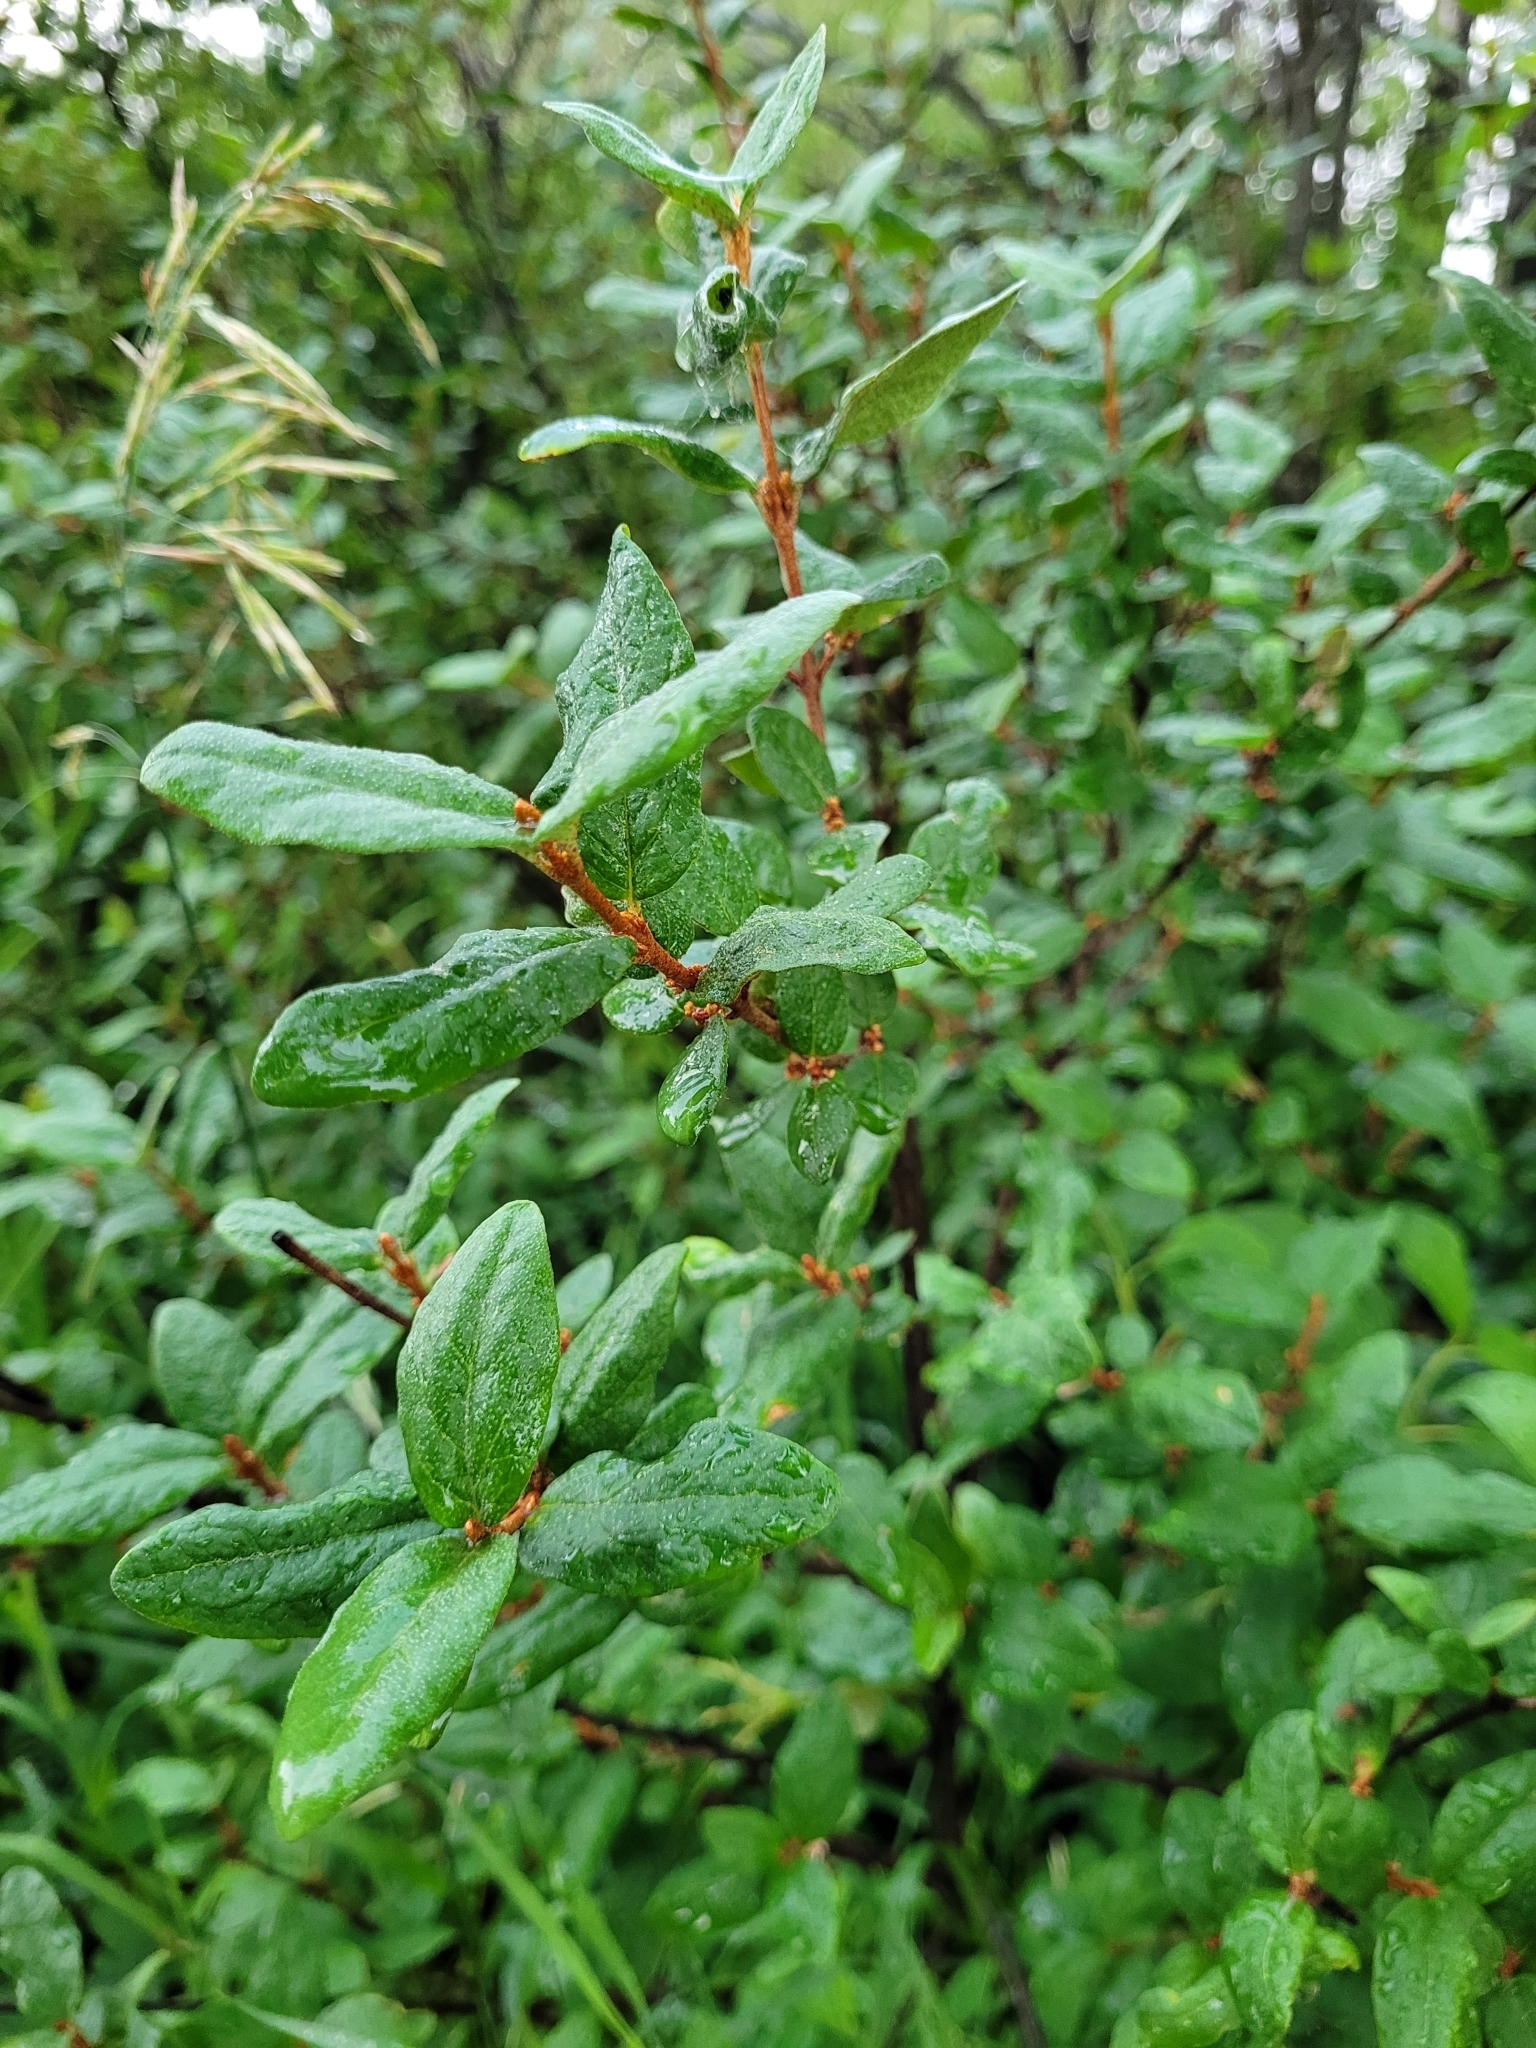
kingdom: Plantae
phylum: Tracheophyta
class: Magnoliopsida
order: Rosales
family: Elaeagnaceae
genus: Shepherdia
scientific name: Shepherdia canadensis
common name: Soapberry
